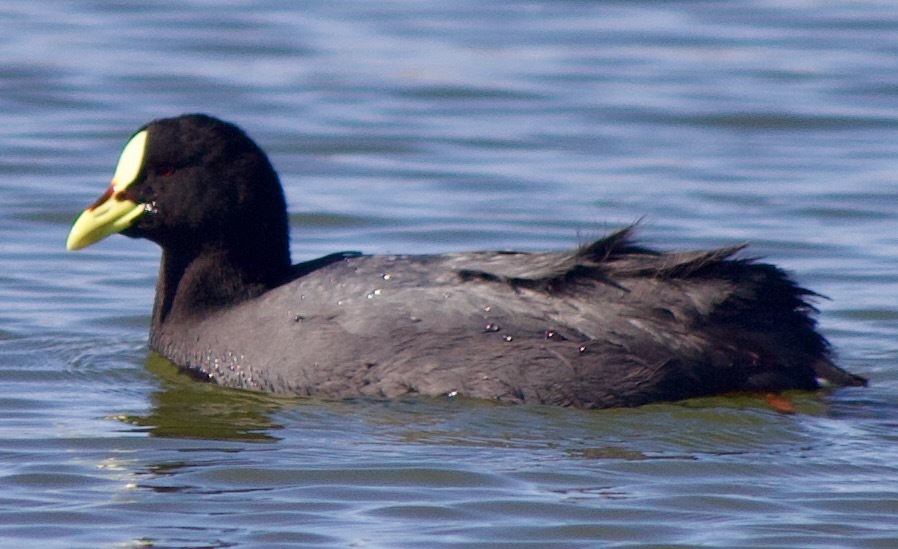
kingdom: Animalia
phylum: Chordata
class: Aves
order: Gruiformes
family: Rallidae
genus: Fulica
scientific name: Fulica armillata
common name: Red-gartered coot
